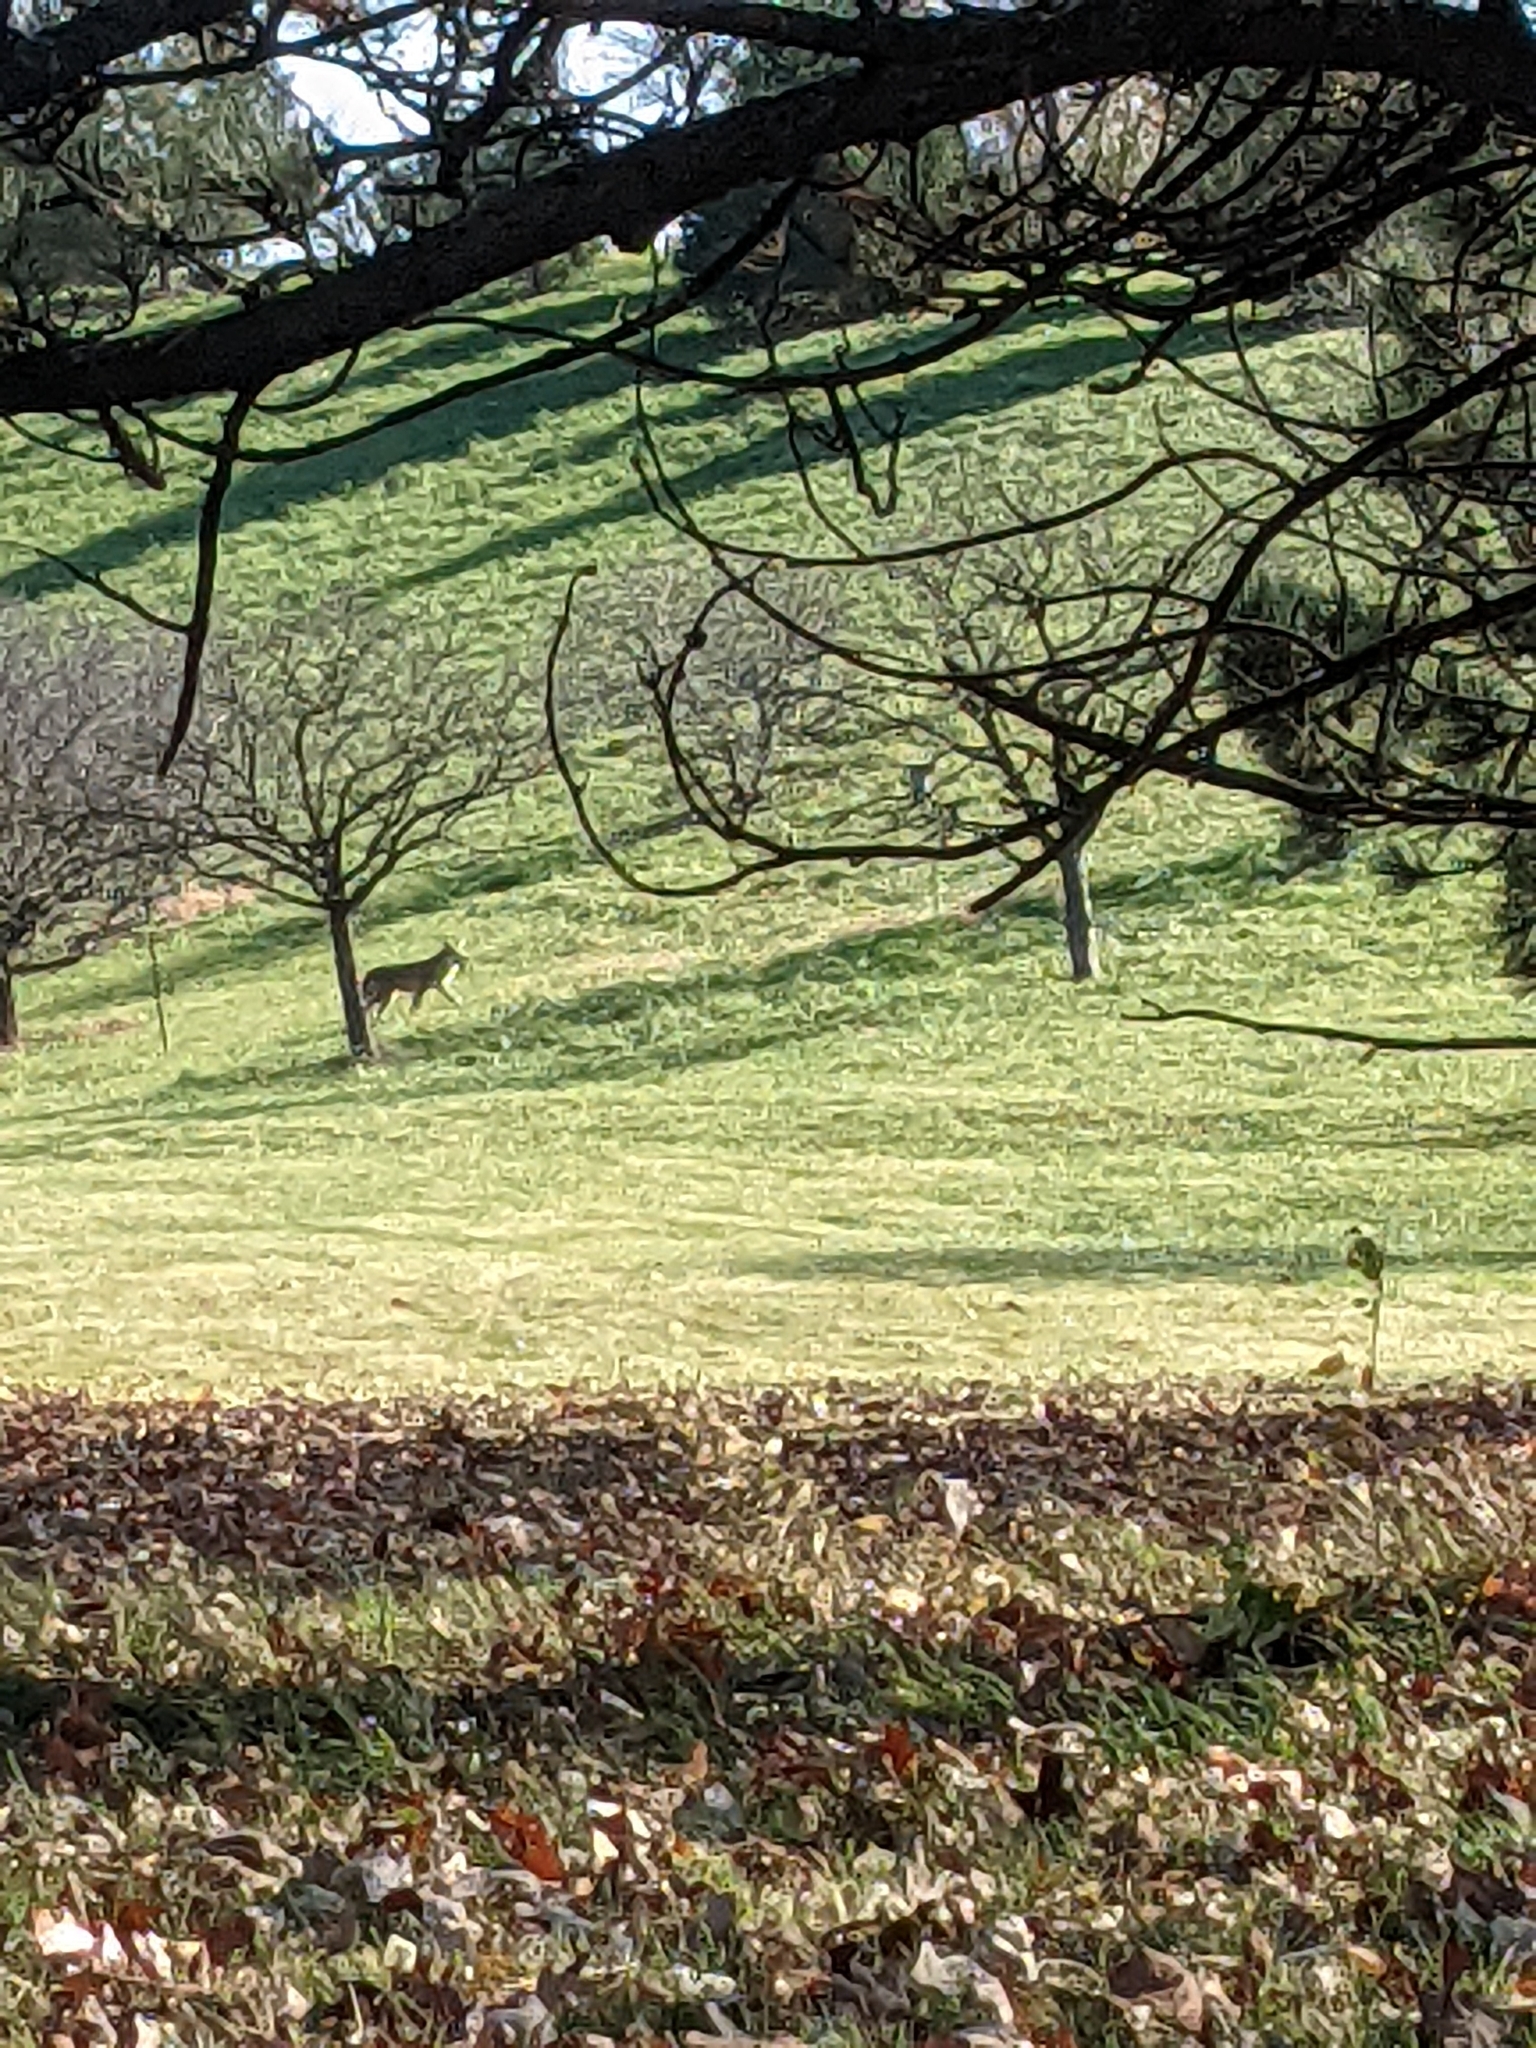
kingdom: Animalia
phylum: Chordata
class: Mammalia
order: Carnivora
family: Canidae
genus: Canis
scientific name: Canis latrans
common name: Coyote
